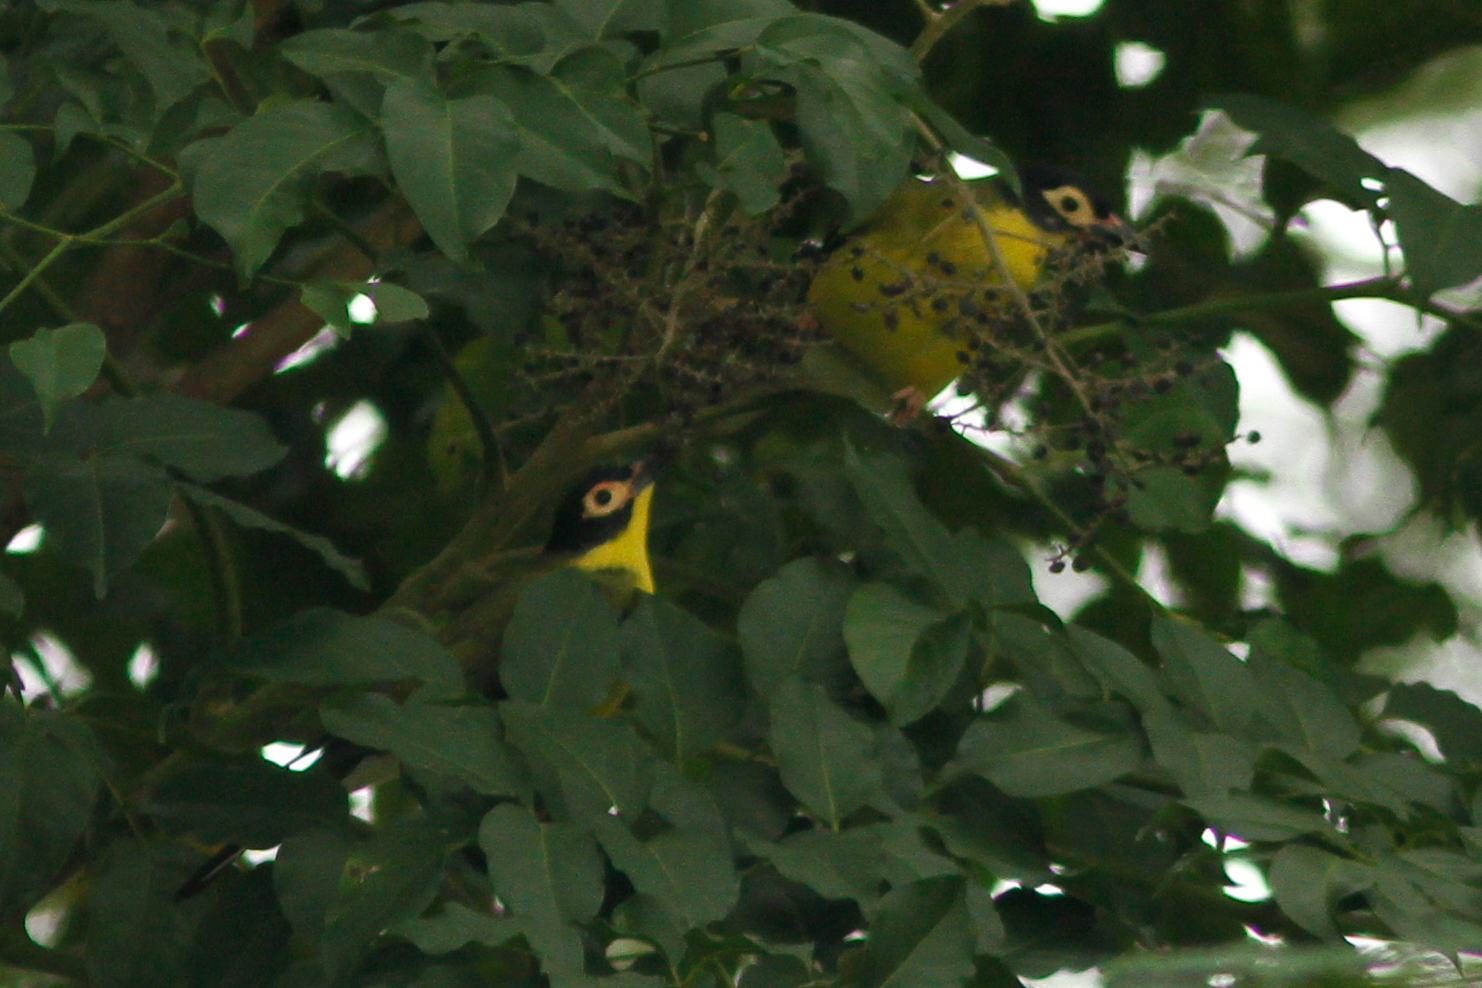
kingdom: Animalia
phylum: Chordata
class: Aves
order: Passeriformes
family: Oriolidae
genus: Sphecotheres
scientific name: Sphecotheres vieilloti
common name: Australasian figbird
